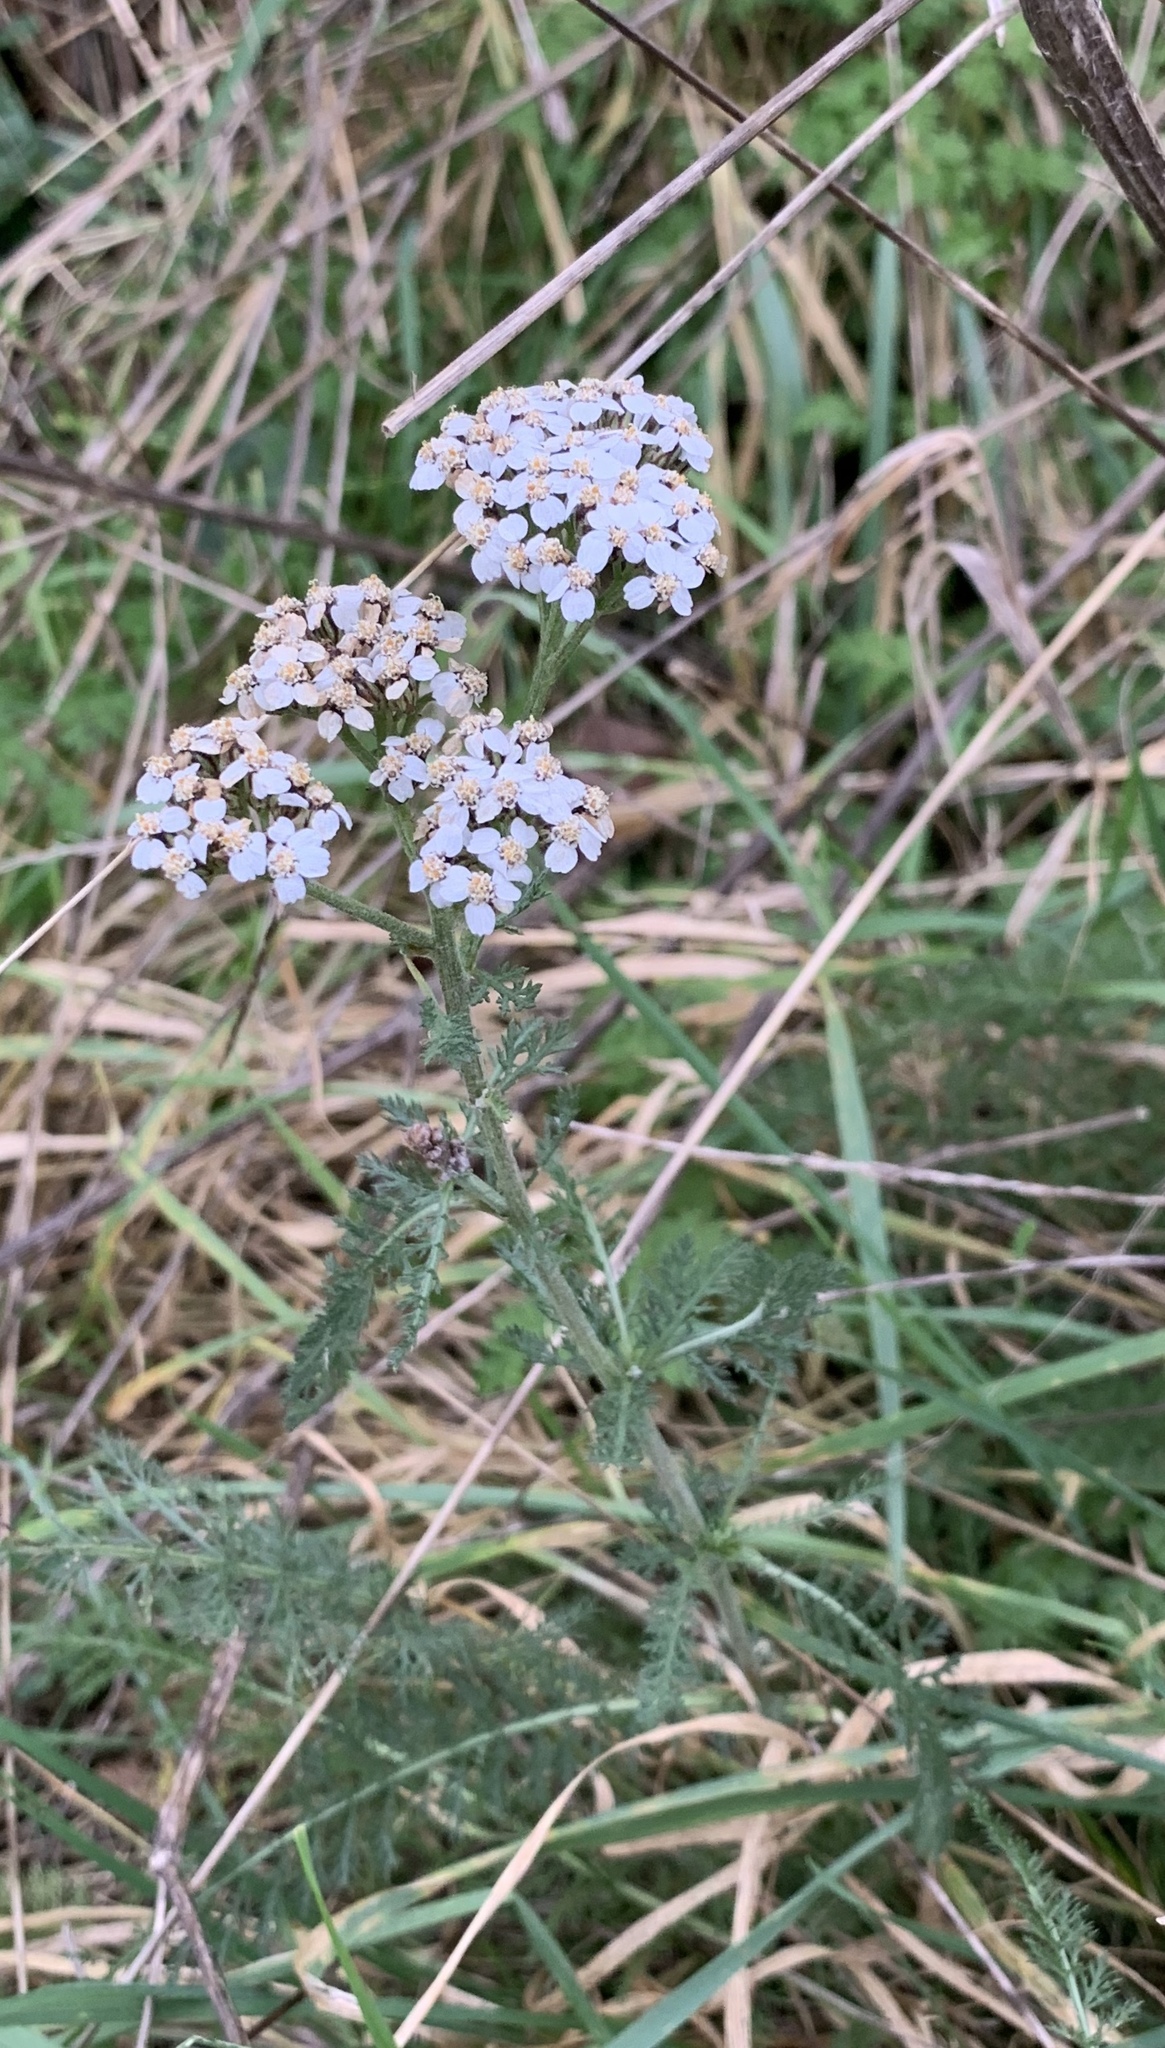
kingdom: Plantae
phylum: Tracheophyta
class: Magnoliopsida
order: Asterales
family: Asteraceae
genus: Achillea
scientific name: Achillea millefolium
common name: Yarrow
